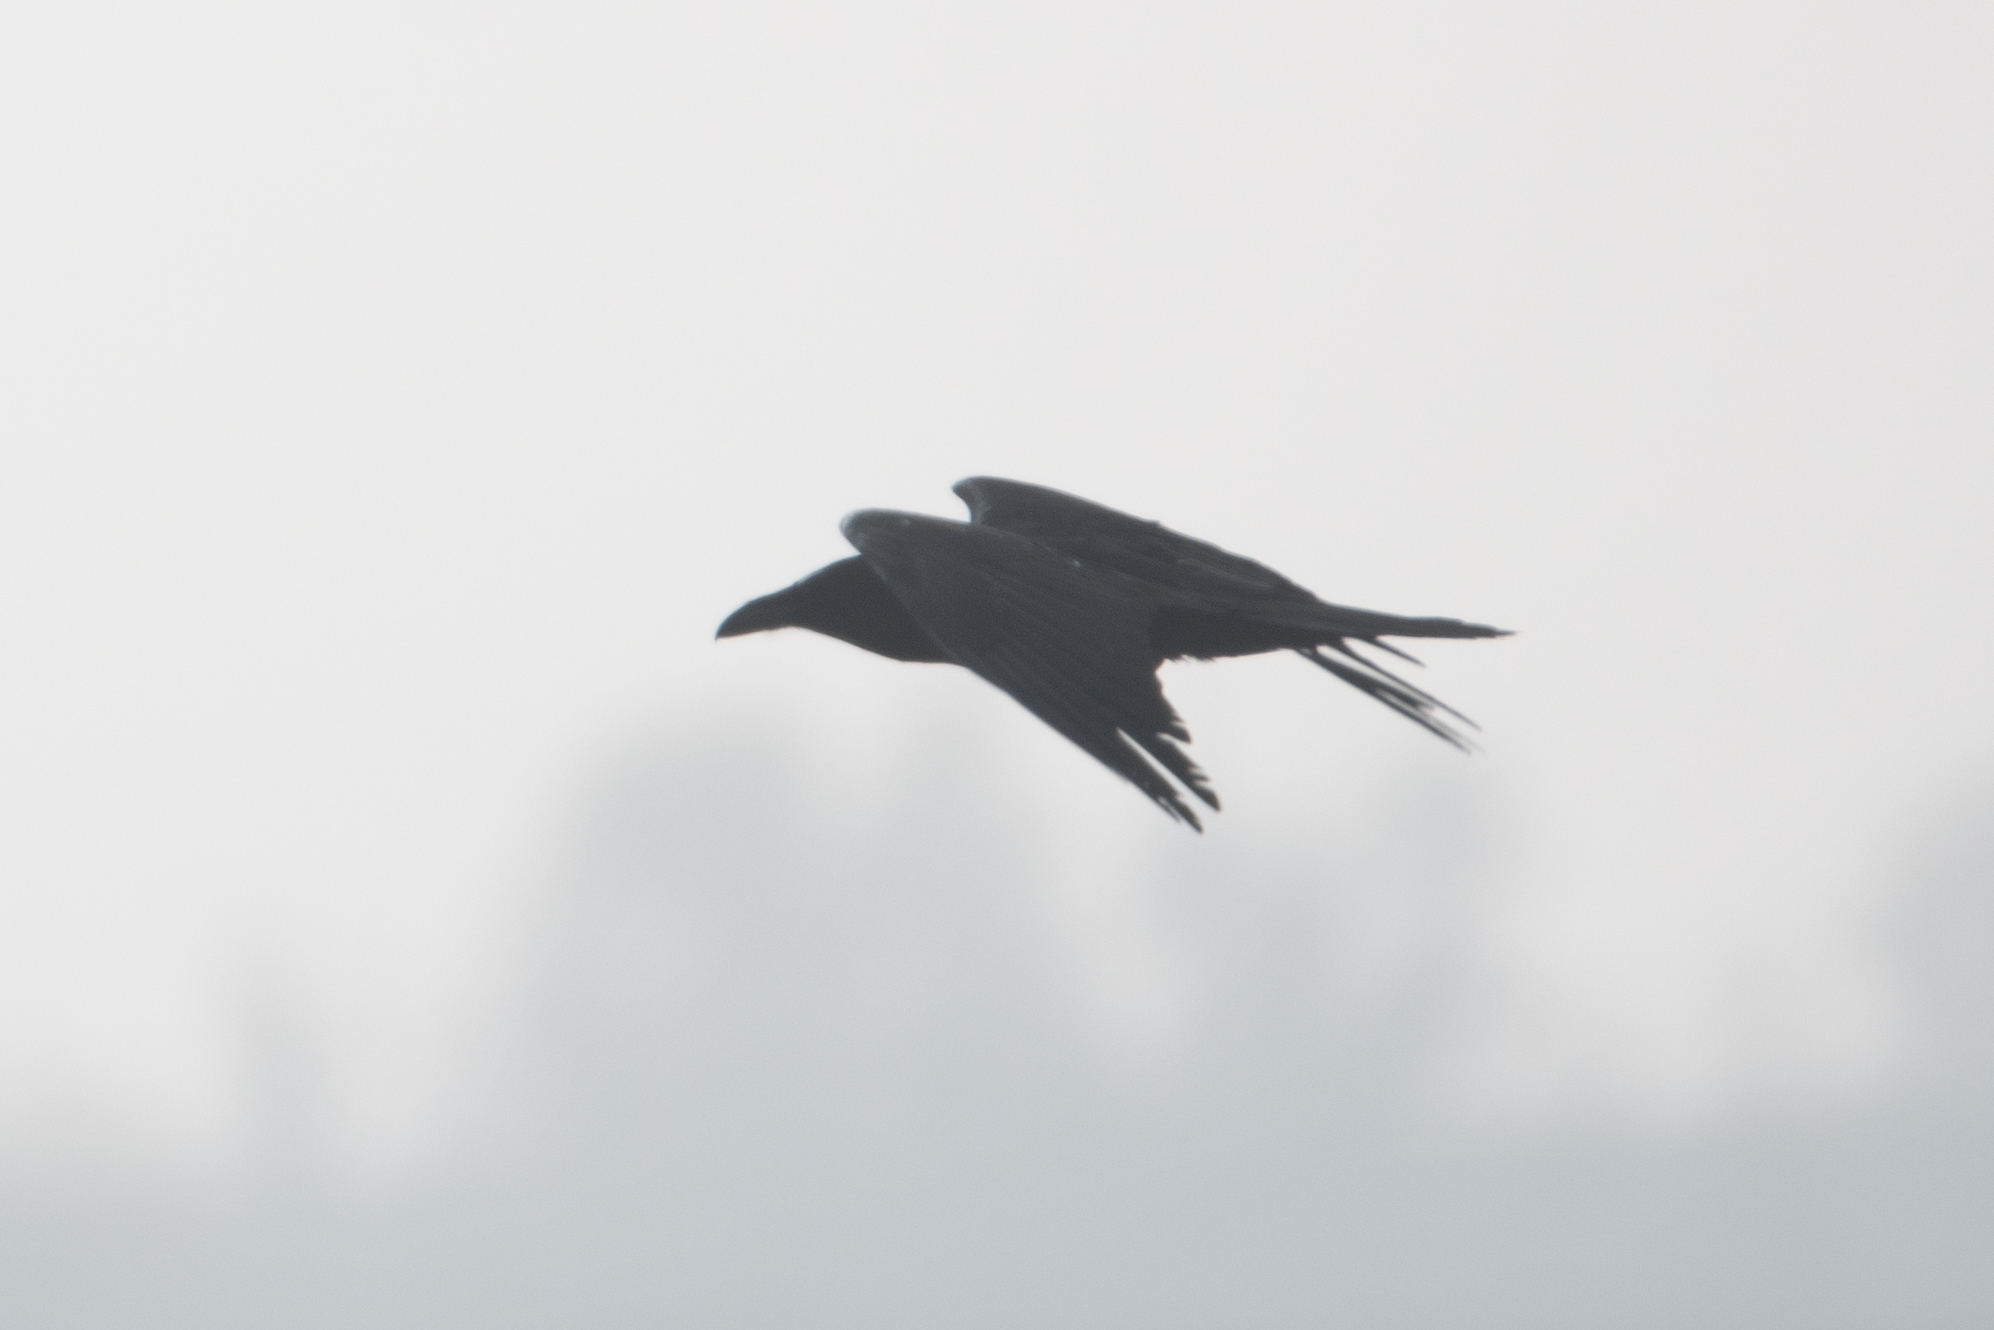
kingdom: Animalia
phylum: Chordata
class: Aves
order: Passeriformes
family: Corvidae
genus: Corvus
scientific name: Corvus corax
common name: Common raven
